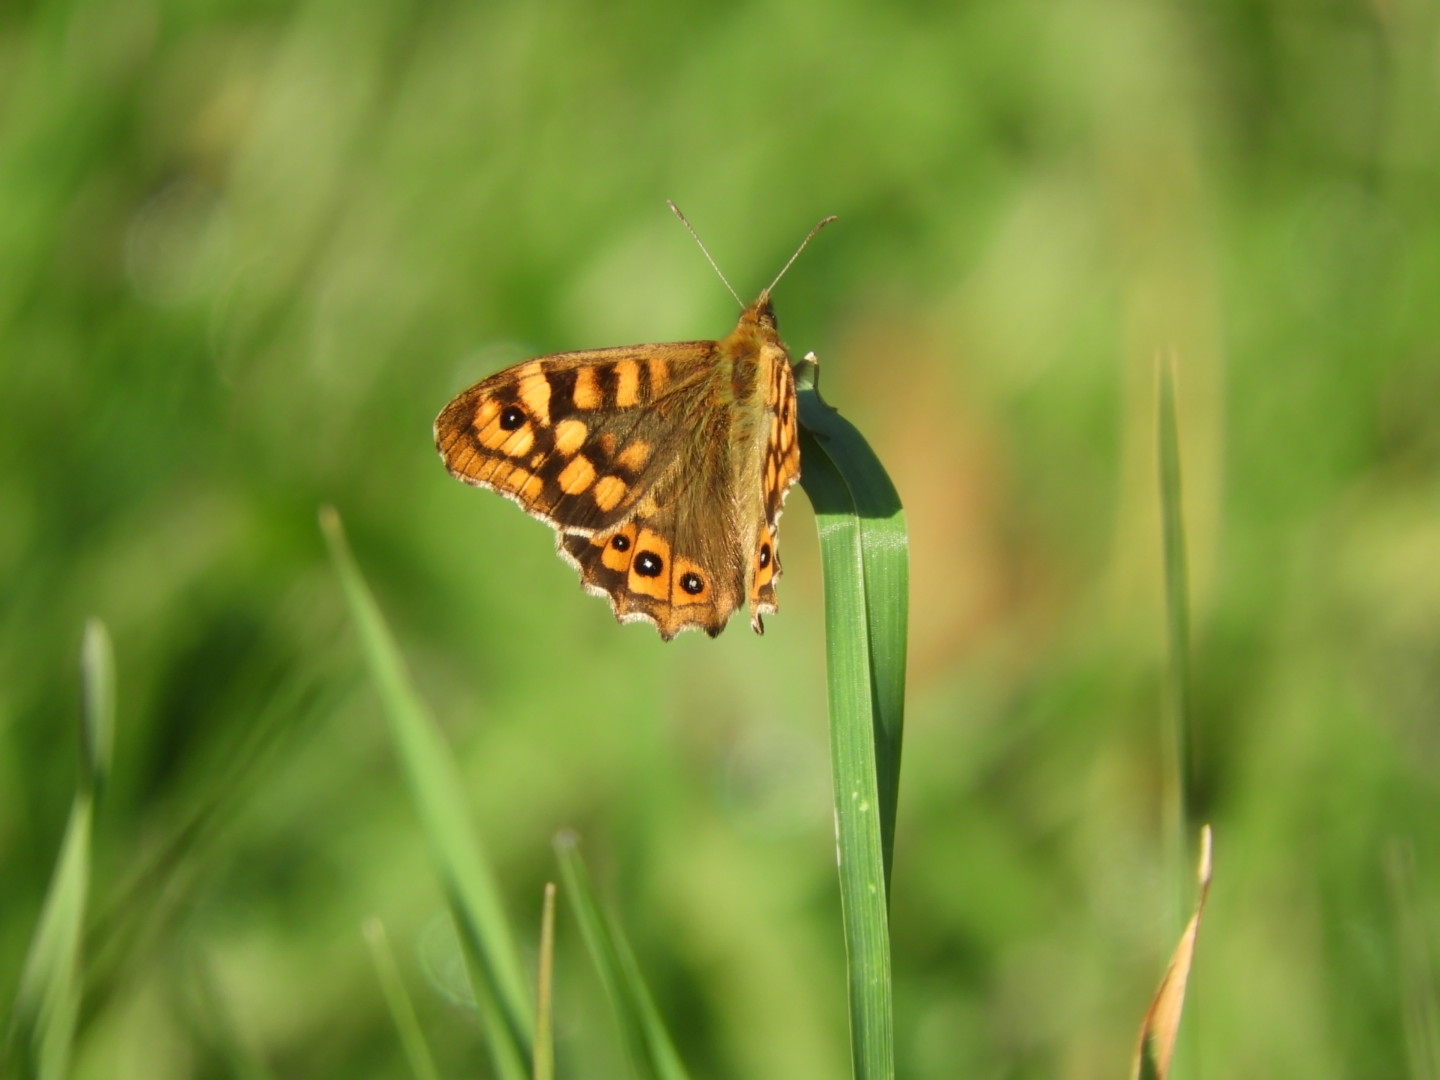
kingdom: Animalia
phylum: Arthropoda
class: Insecta
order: Lepidoptera
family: Nymphalidae
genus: Pararge
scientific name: Pararge aegeria
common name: Speckled wood
